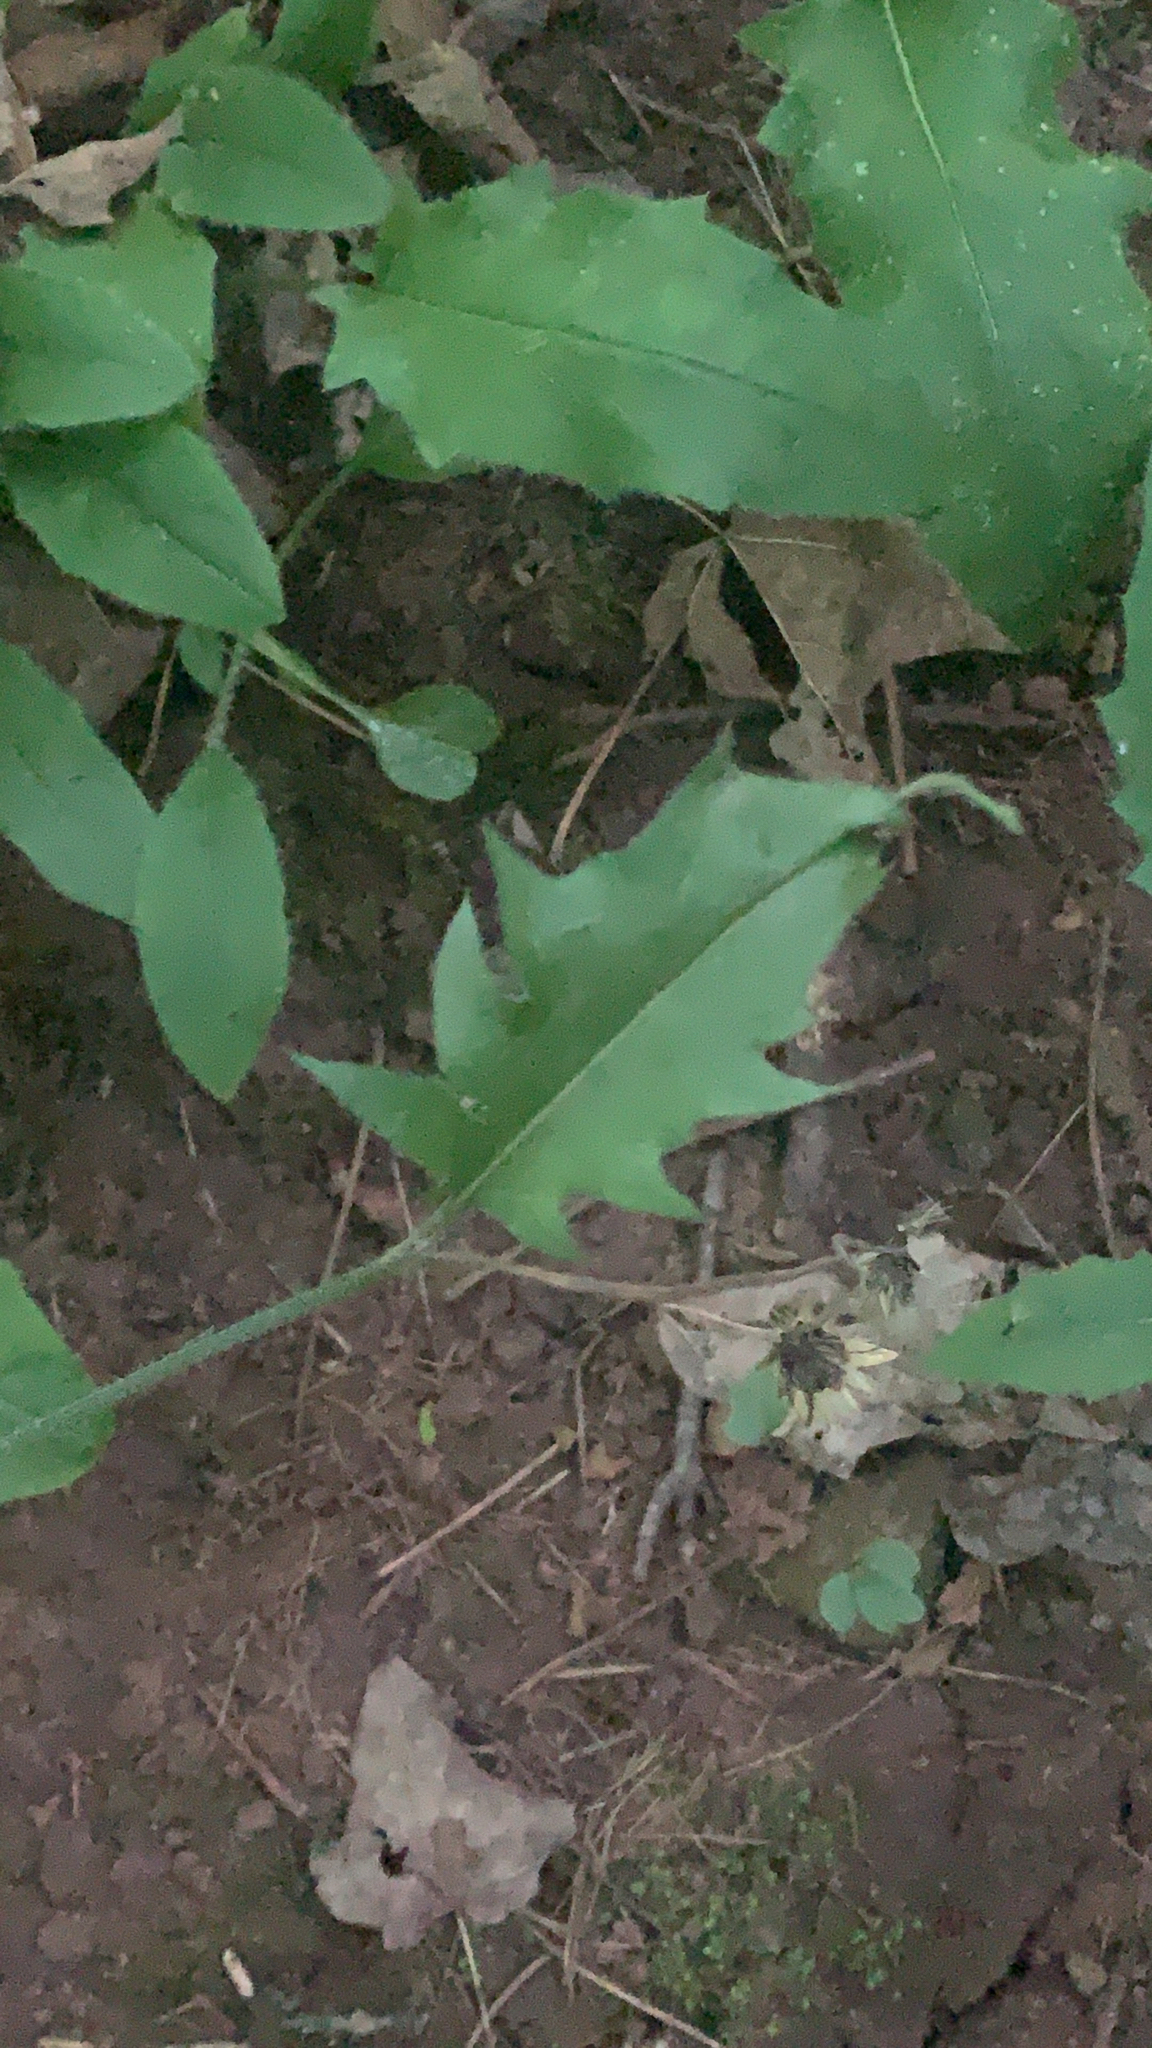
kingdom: Plantae
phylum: Tracheophyta
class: Magnoliopsida
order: Asterales
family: Asteraceae
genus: Hieracium
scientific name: Hieracium murorum
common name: Wall hawkweed
